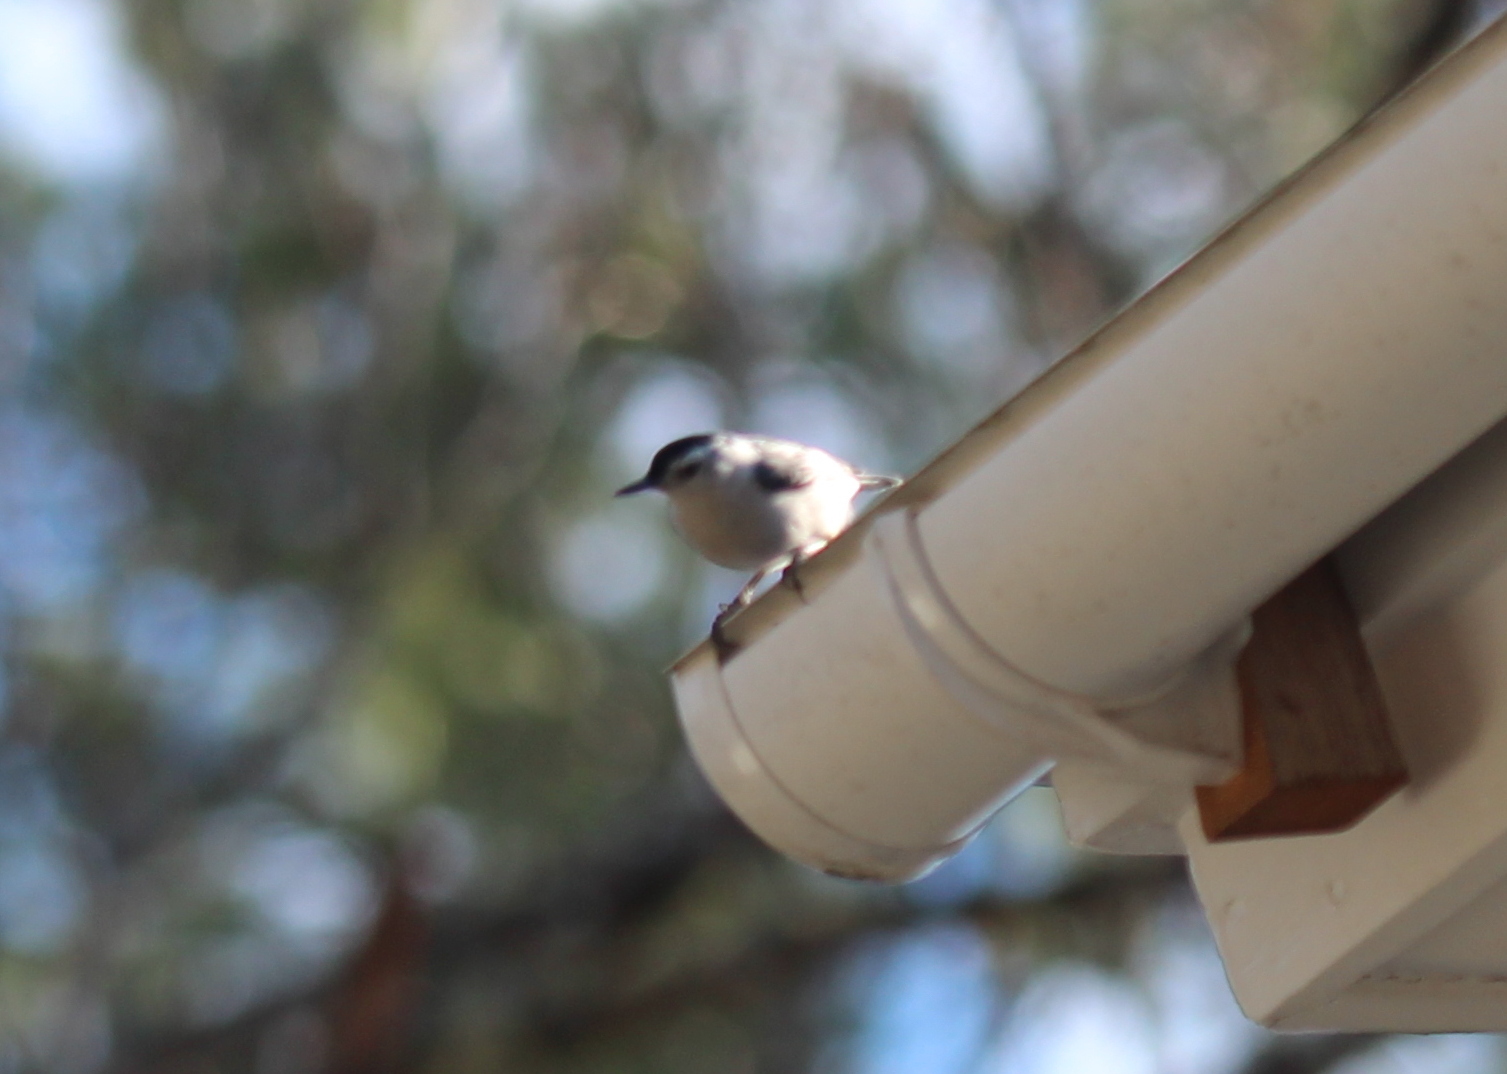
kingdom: Animalia
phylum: Chordata
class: Aves
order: Passeriformes
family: Sittidae
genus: Sitta
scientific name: Sitta carolinensis
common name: White-breasted nuthatch
